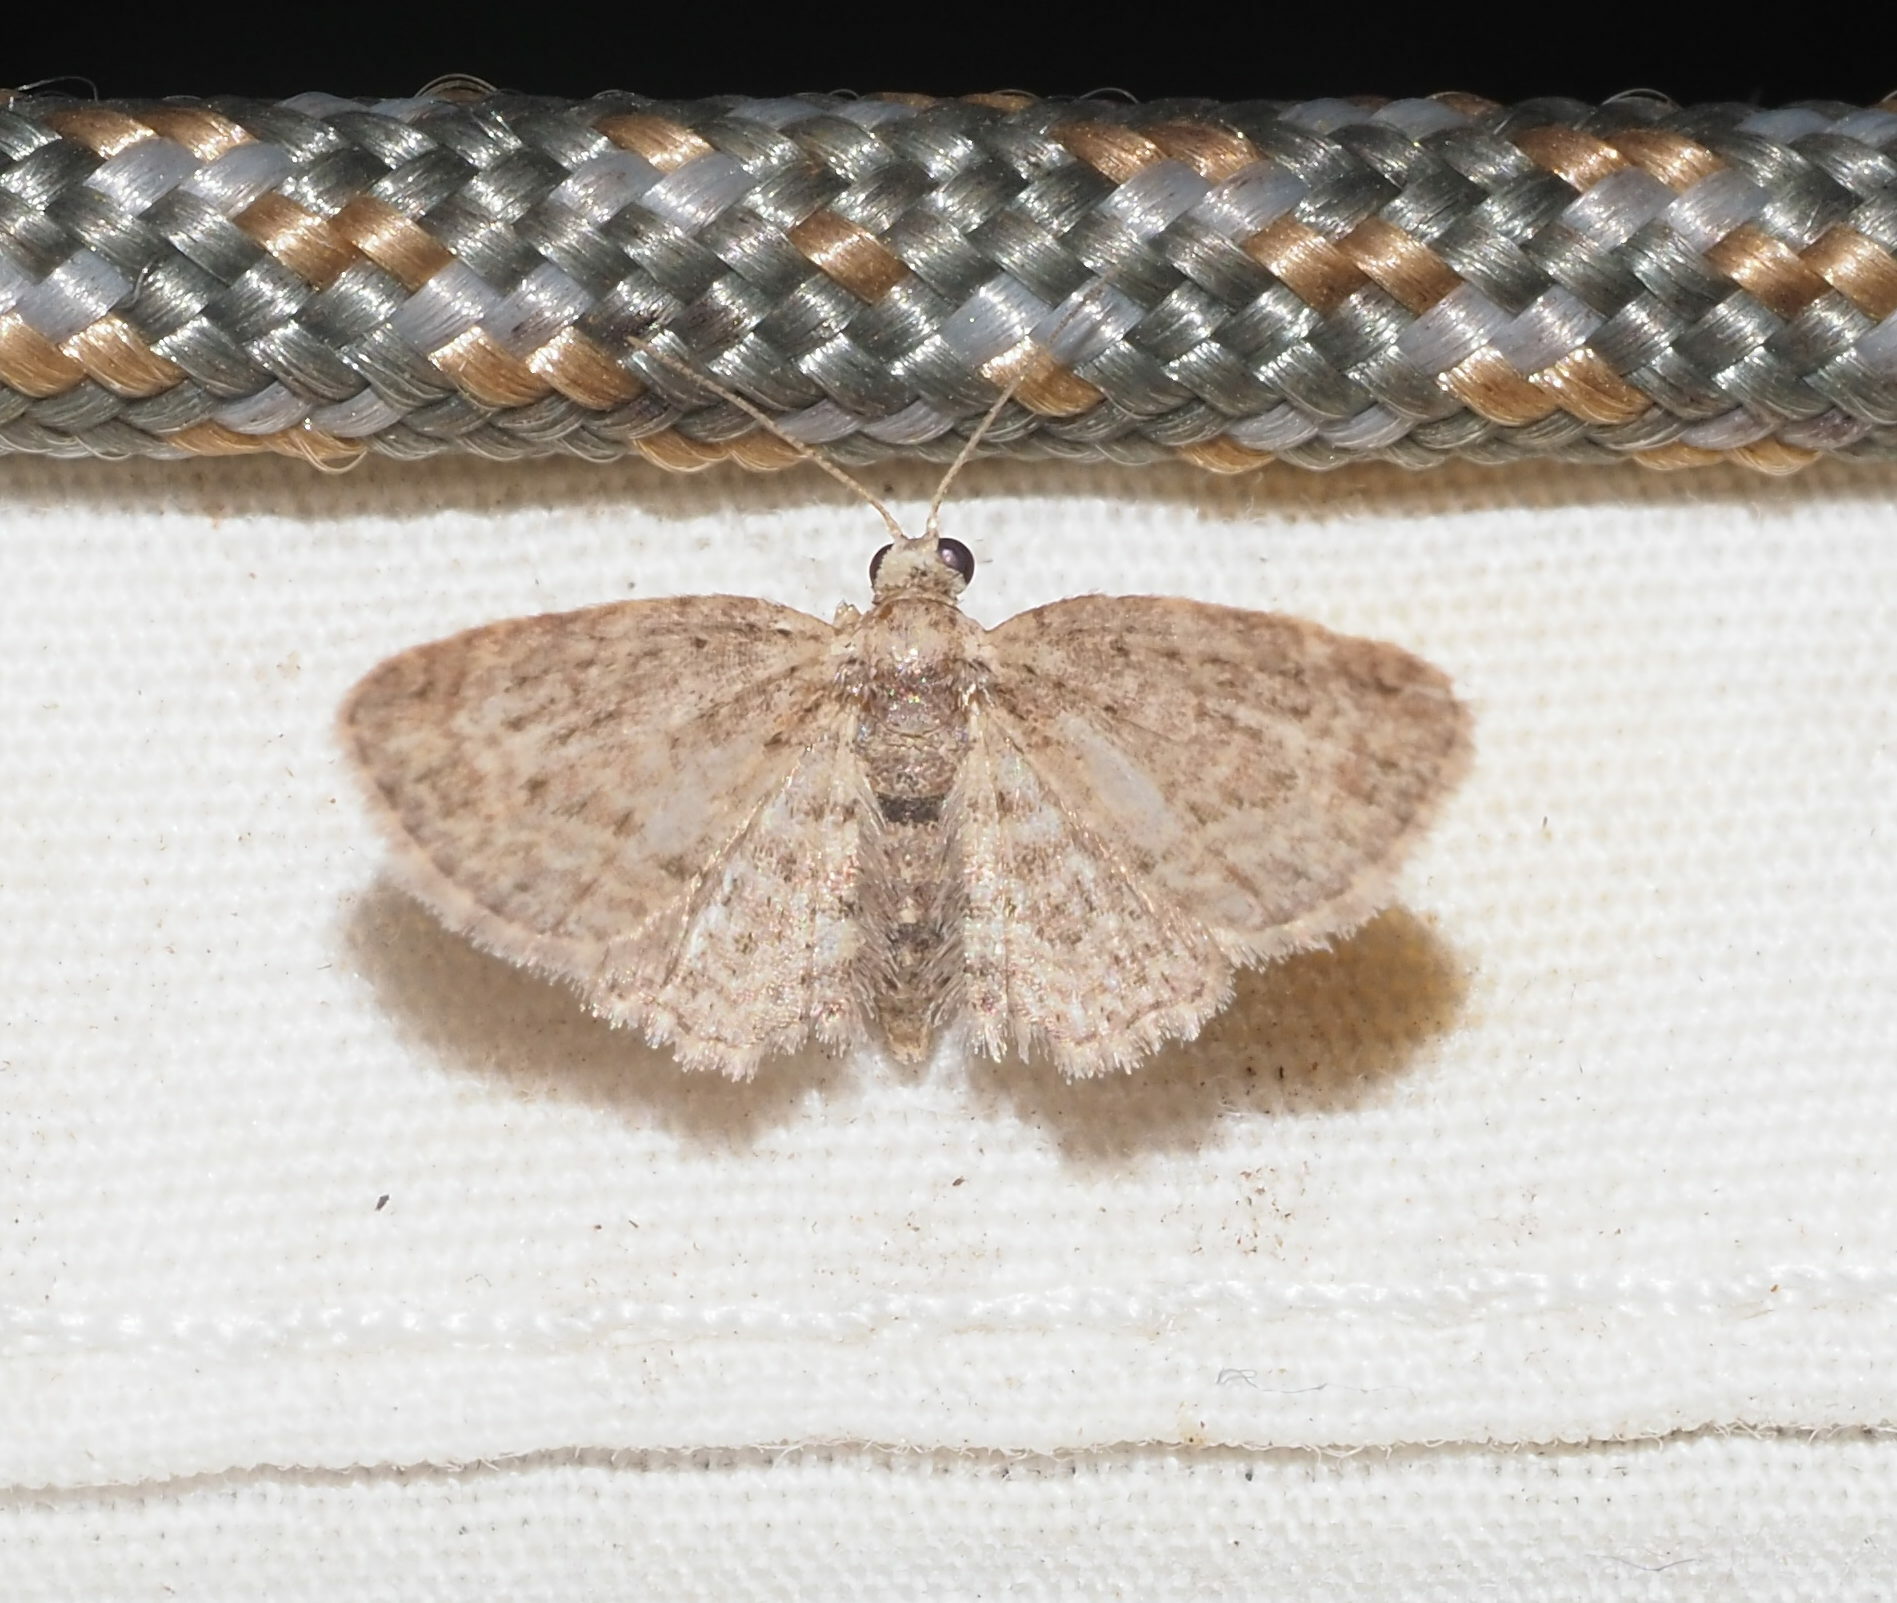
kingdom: Animalia
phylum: Arthropoda
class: Insecta
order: Lepidoptera
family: Geometridae
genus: Chloroclystis
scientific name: Chloroclystis pyrrholopha
